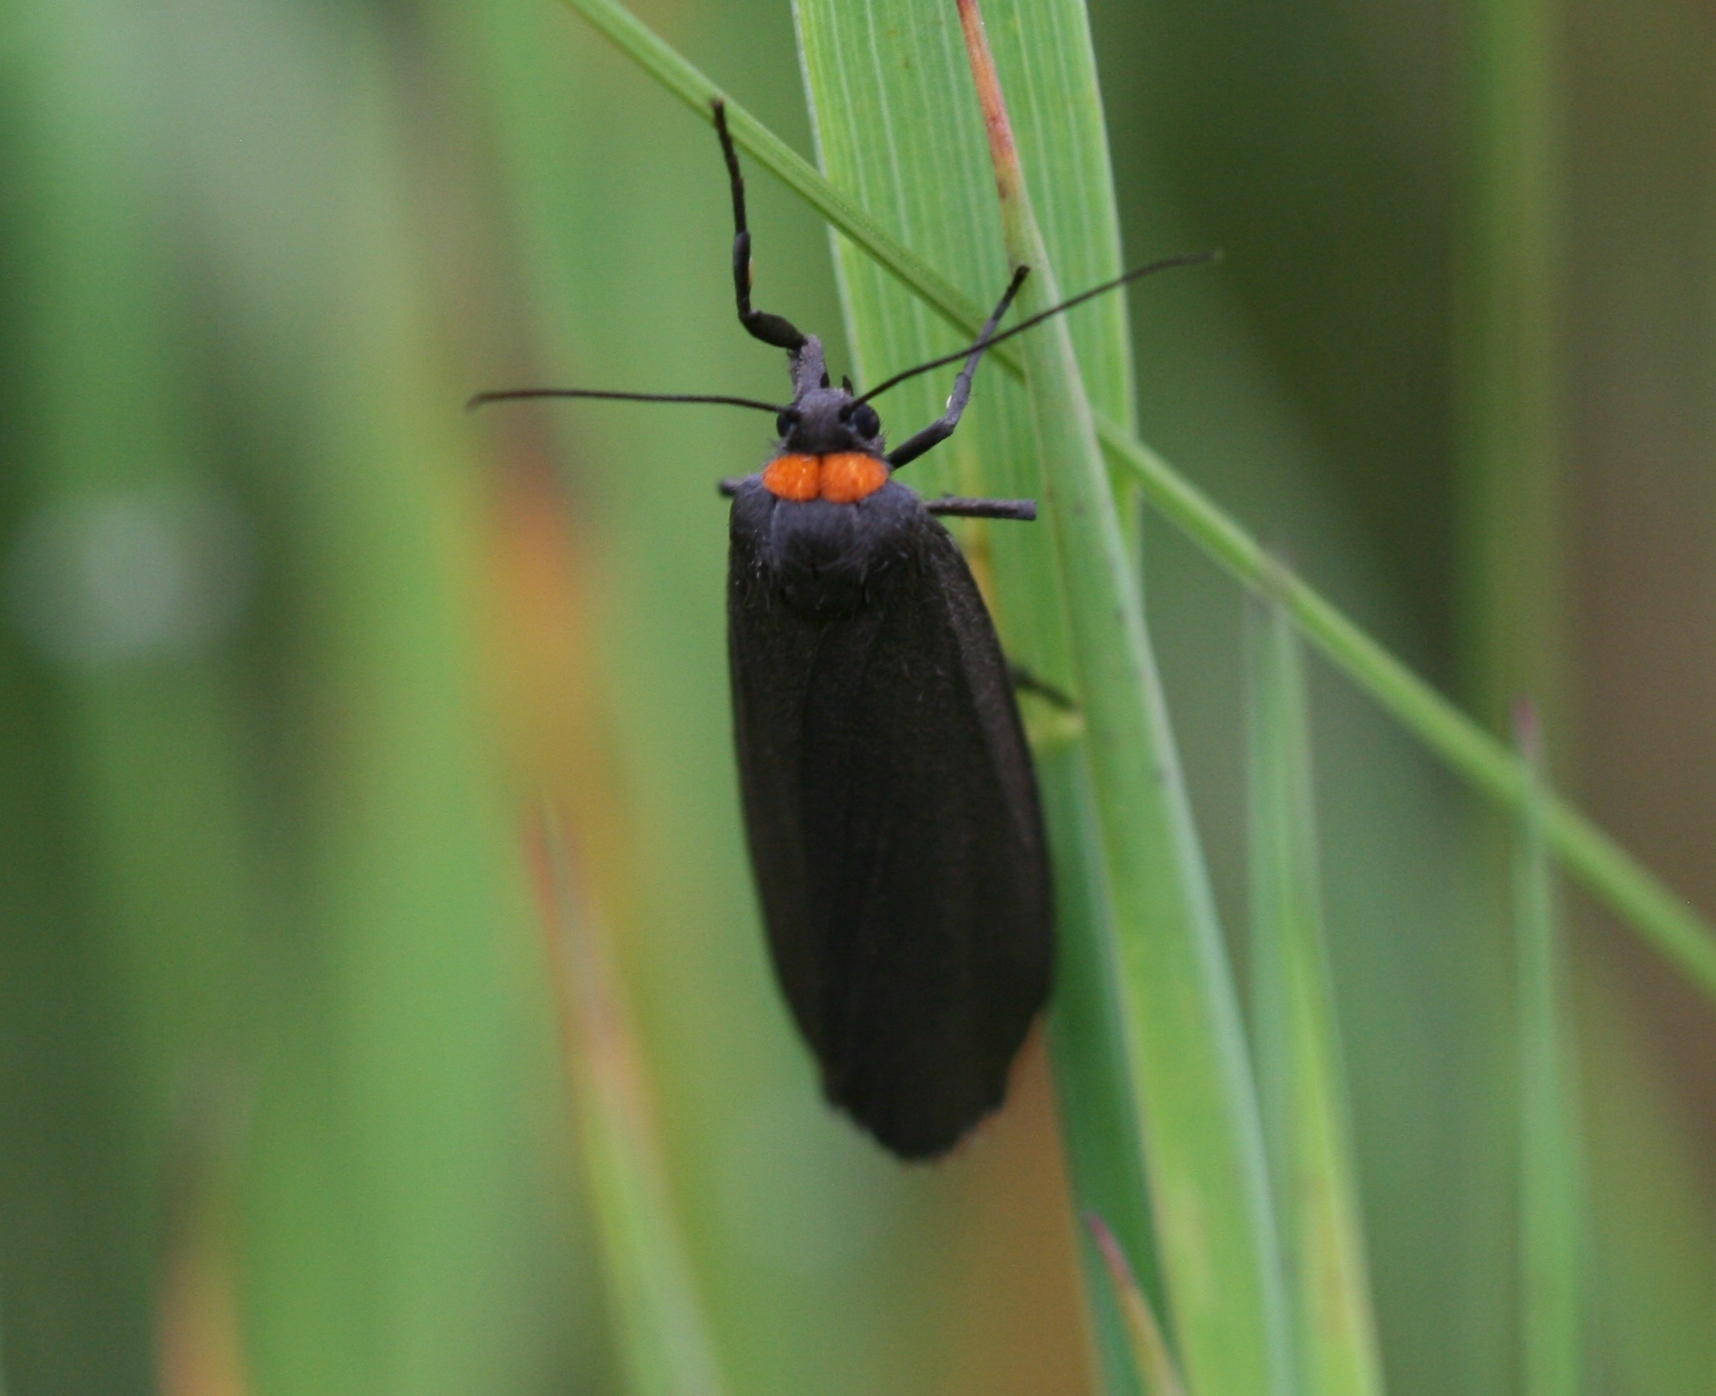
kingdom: Animalia
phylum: Arthropoda
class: Insecta
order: Lepidoptera
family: Erebidae
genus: Atolmis
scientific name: Atolmis rubricollis
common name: Red-necked footman
